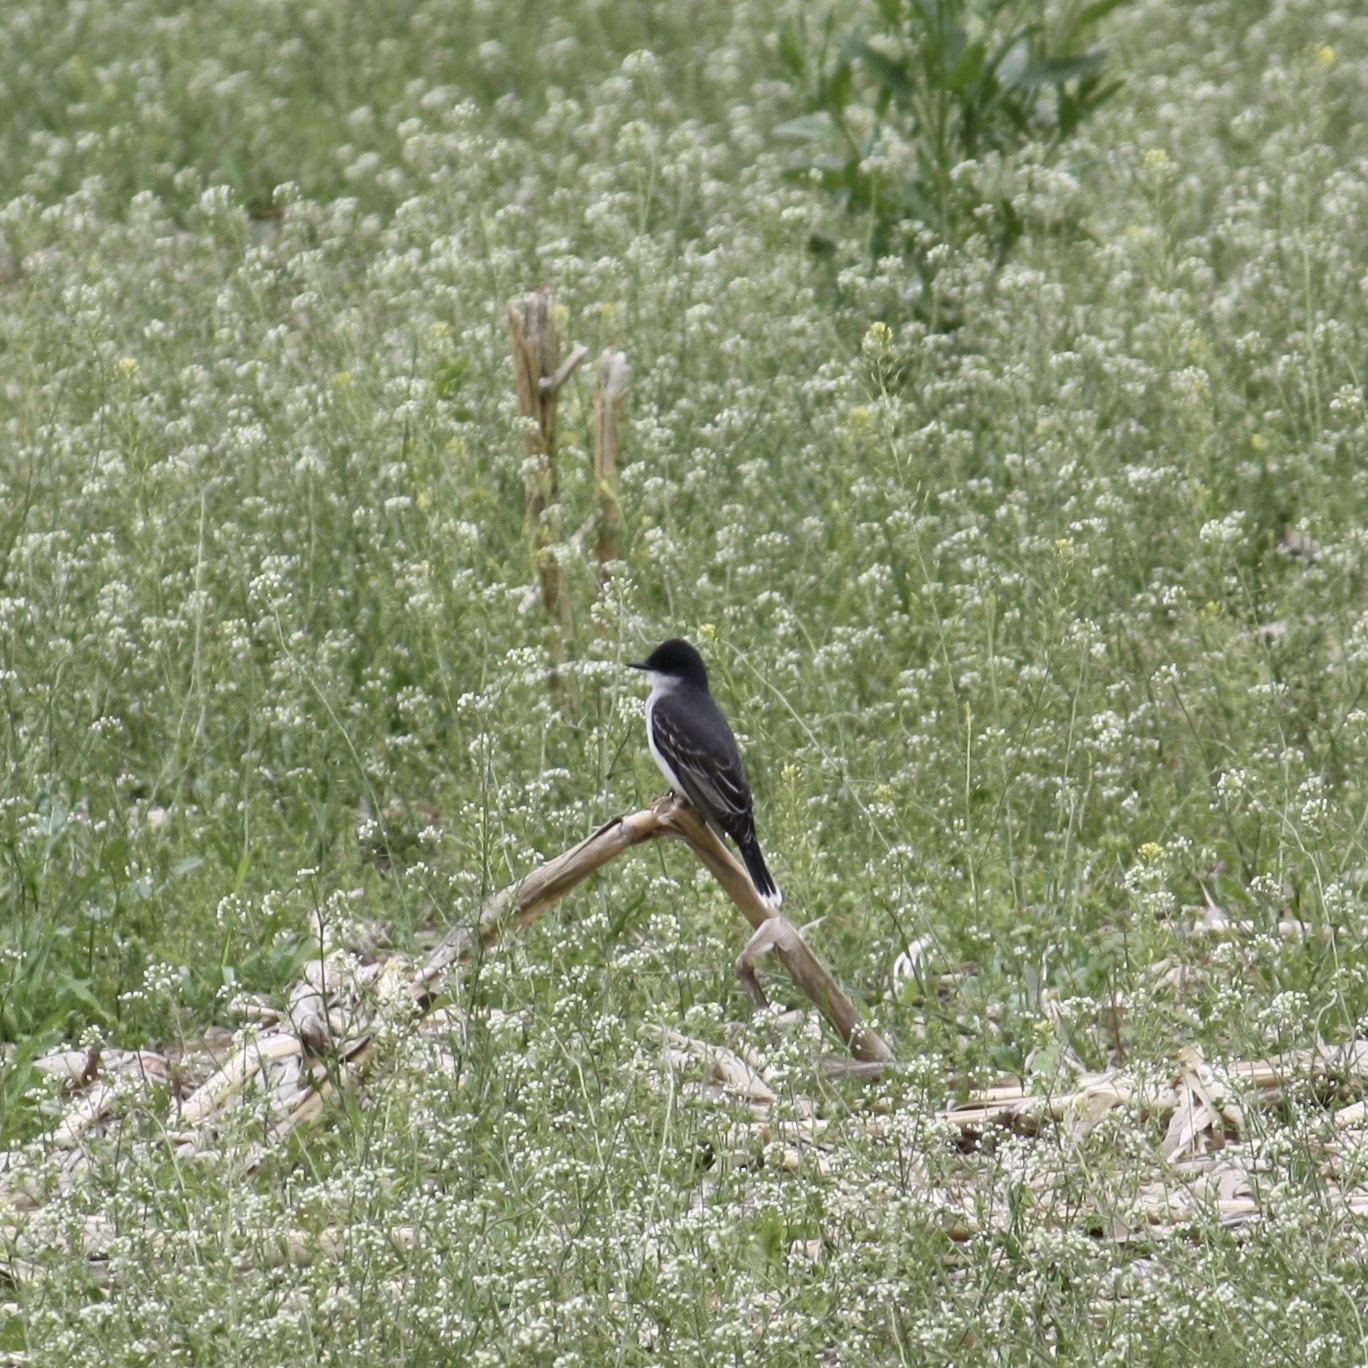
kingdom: Animalia
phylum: Chordata
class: Aves
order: Passeriformes
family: Tyrannidae
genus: Tyrannus
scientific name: Tyrannus tyrannus
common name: Eastern kingbird
